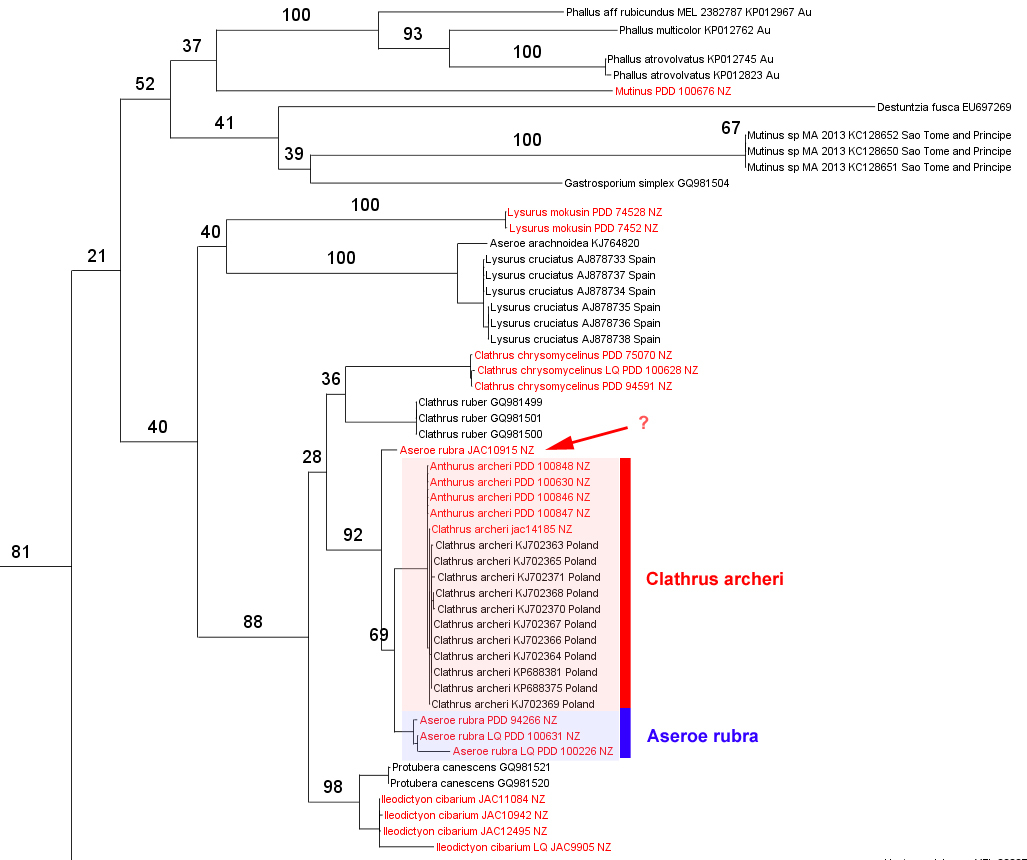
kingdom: Fungi
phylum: Basidiomycota
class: Agaricomycetes
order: Phallales
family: Phallaceae
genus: Clathrus
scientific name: Clathrus archeri
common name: Devil's fingers
